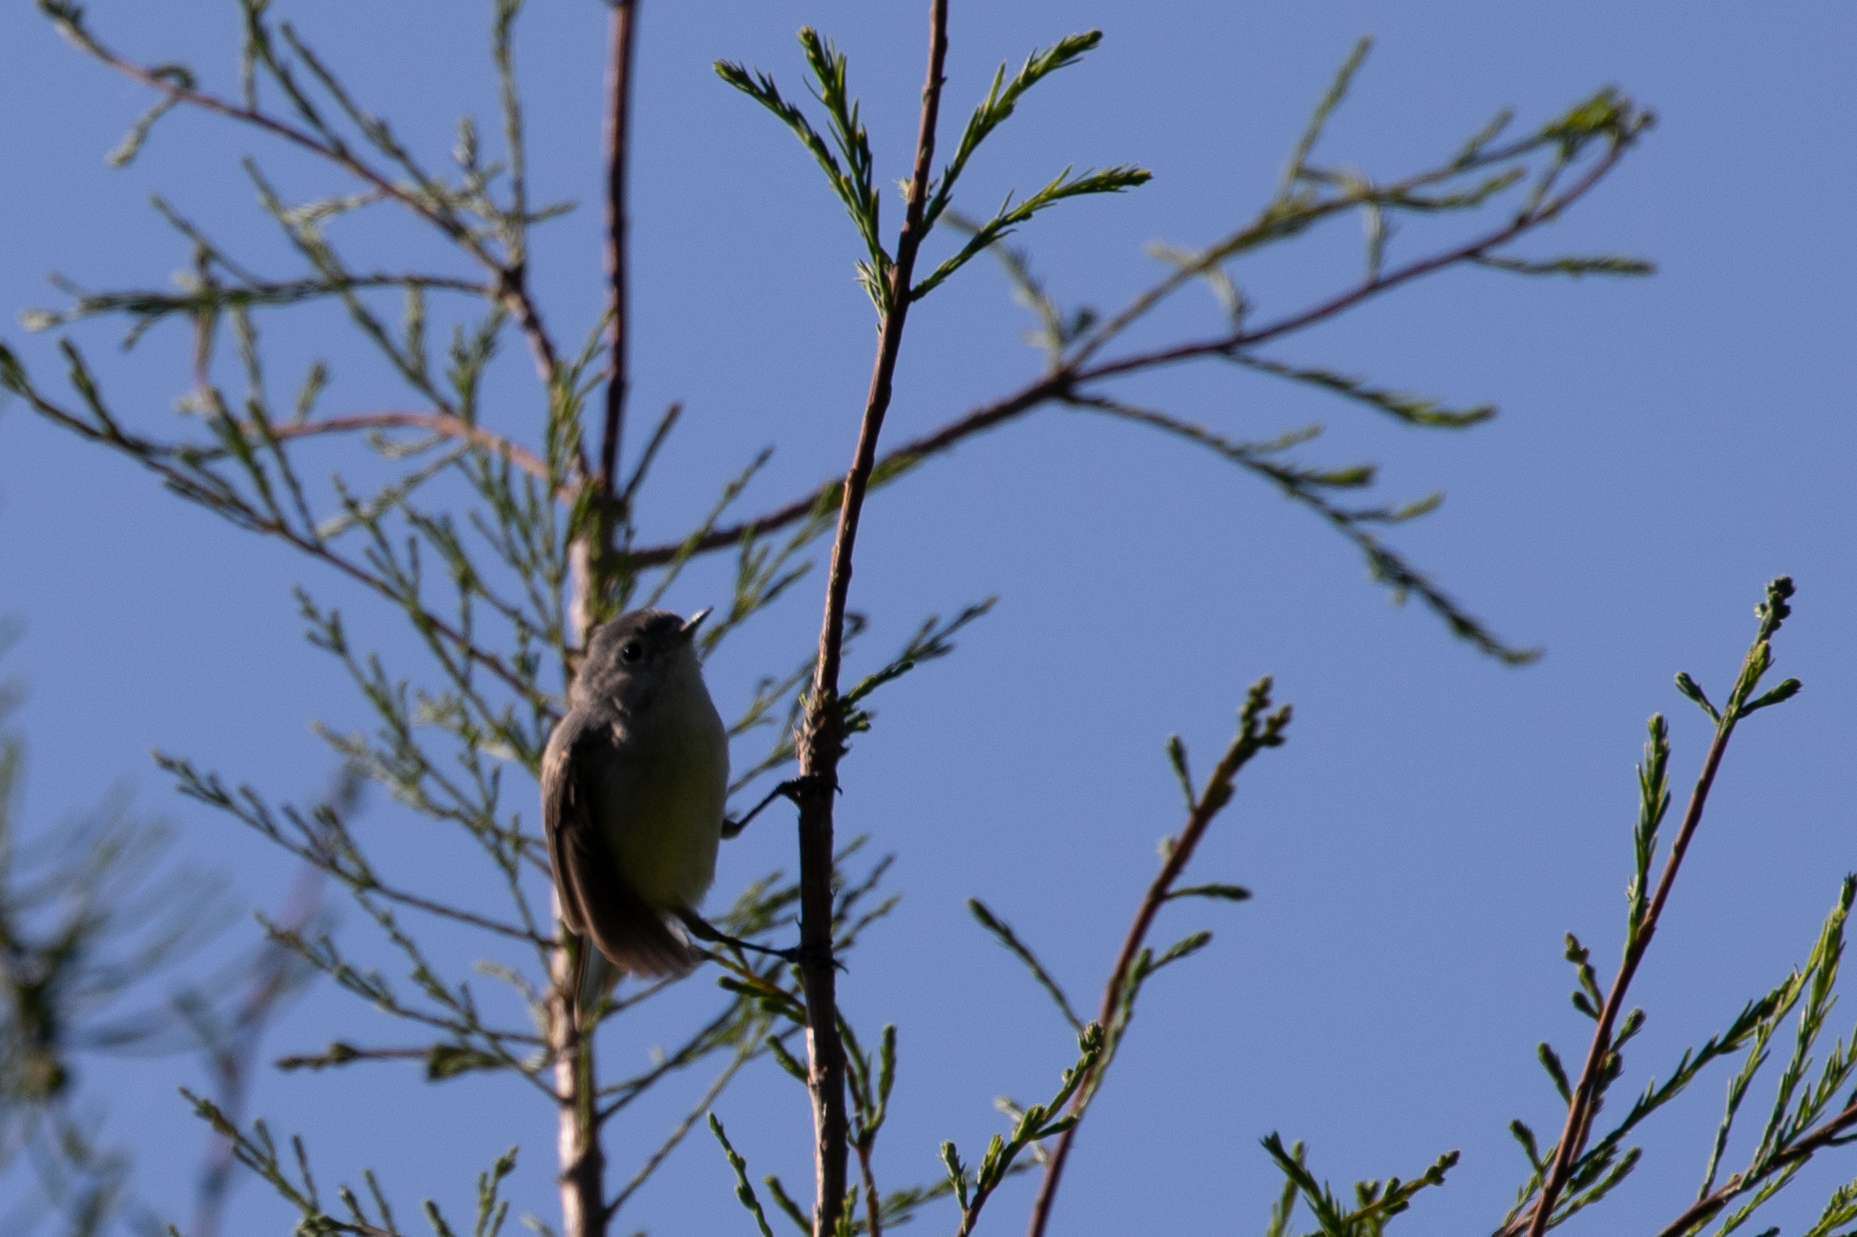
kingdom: Animalia
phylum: Chordata
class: Aves
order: Passeriformes
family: Polioptilidae
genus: Polioptila
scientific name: Polioptila caerulea
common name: Blue-gray gnatcatcher
